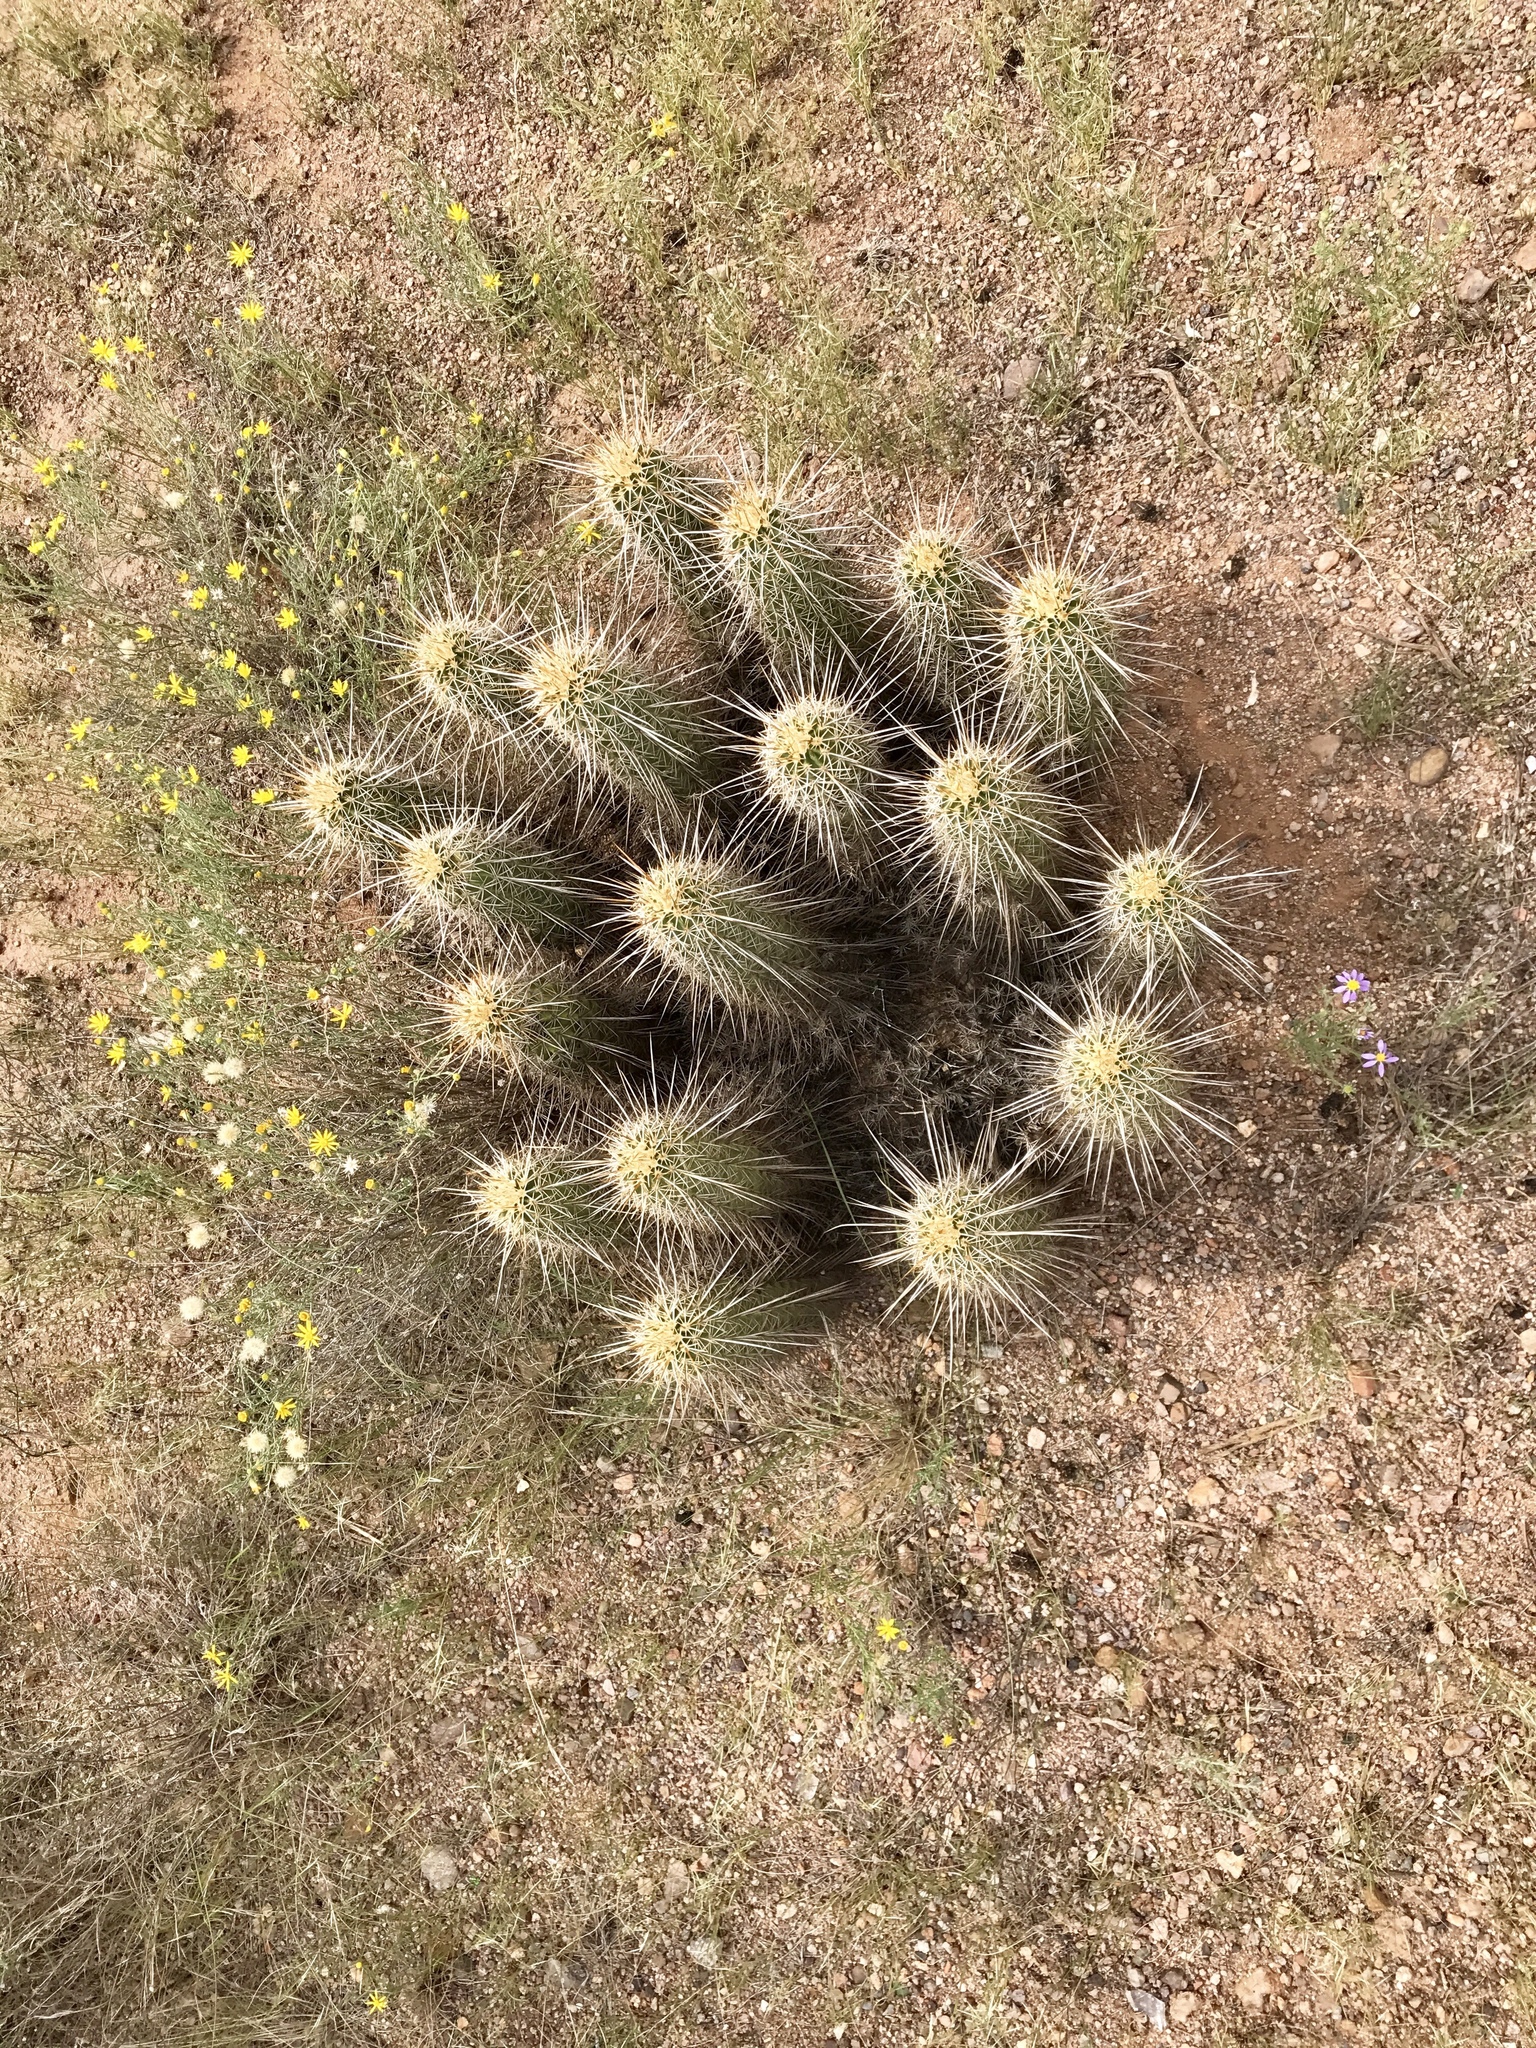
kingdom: Plantae
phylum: Tracheophyta
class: Magnoliopsida
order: Caryophyllales
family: Cactaceae
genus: Echinocereus
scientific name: Echinocereus fasciculatus
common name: Bundle hedgehog
